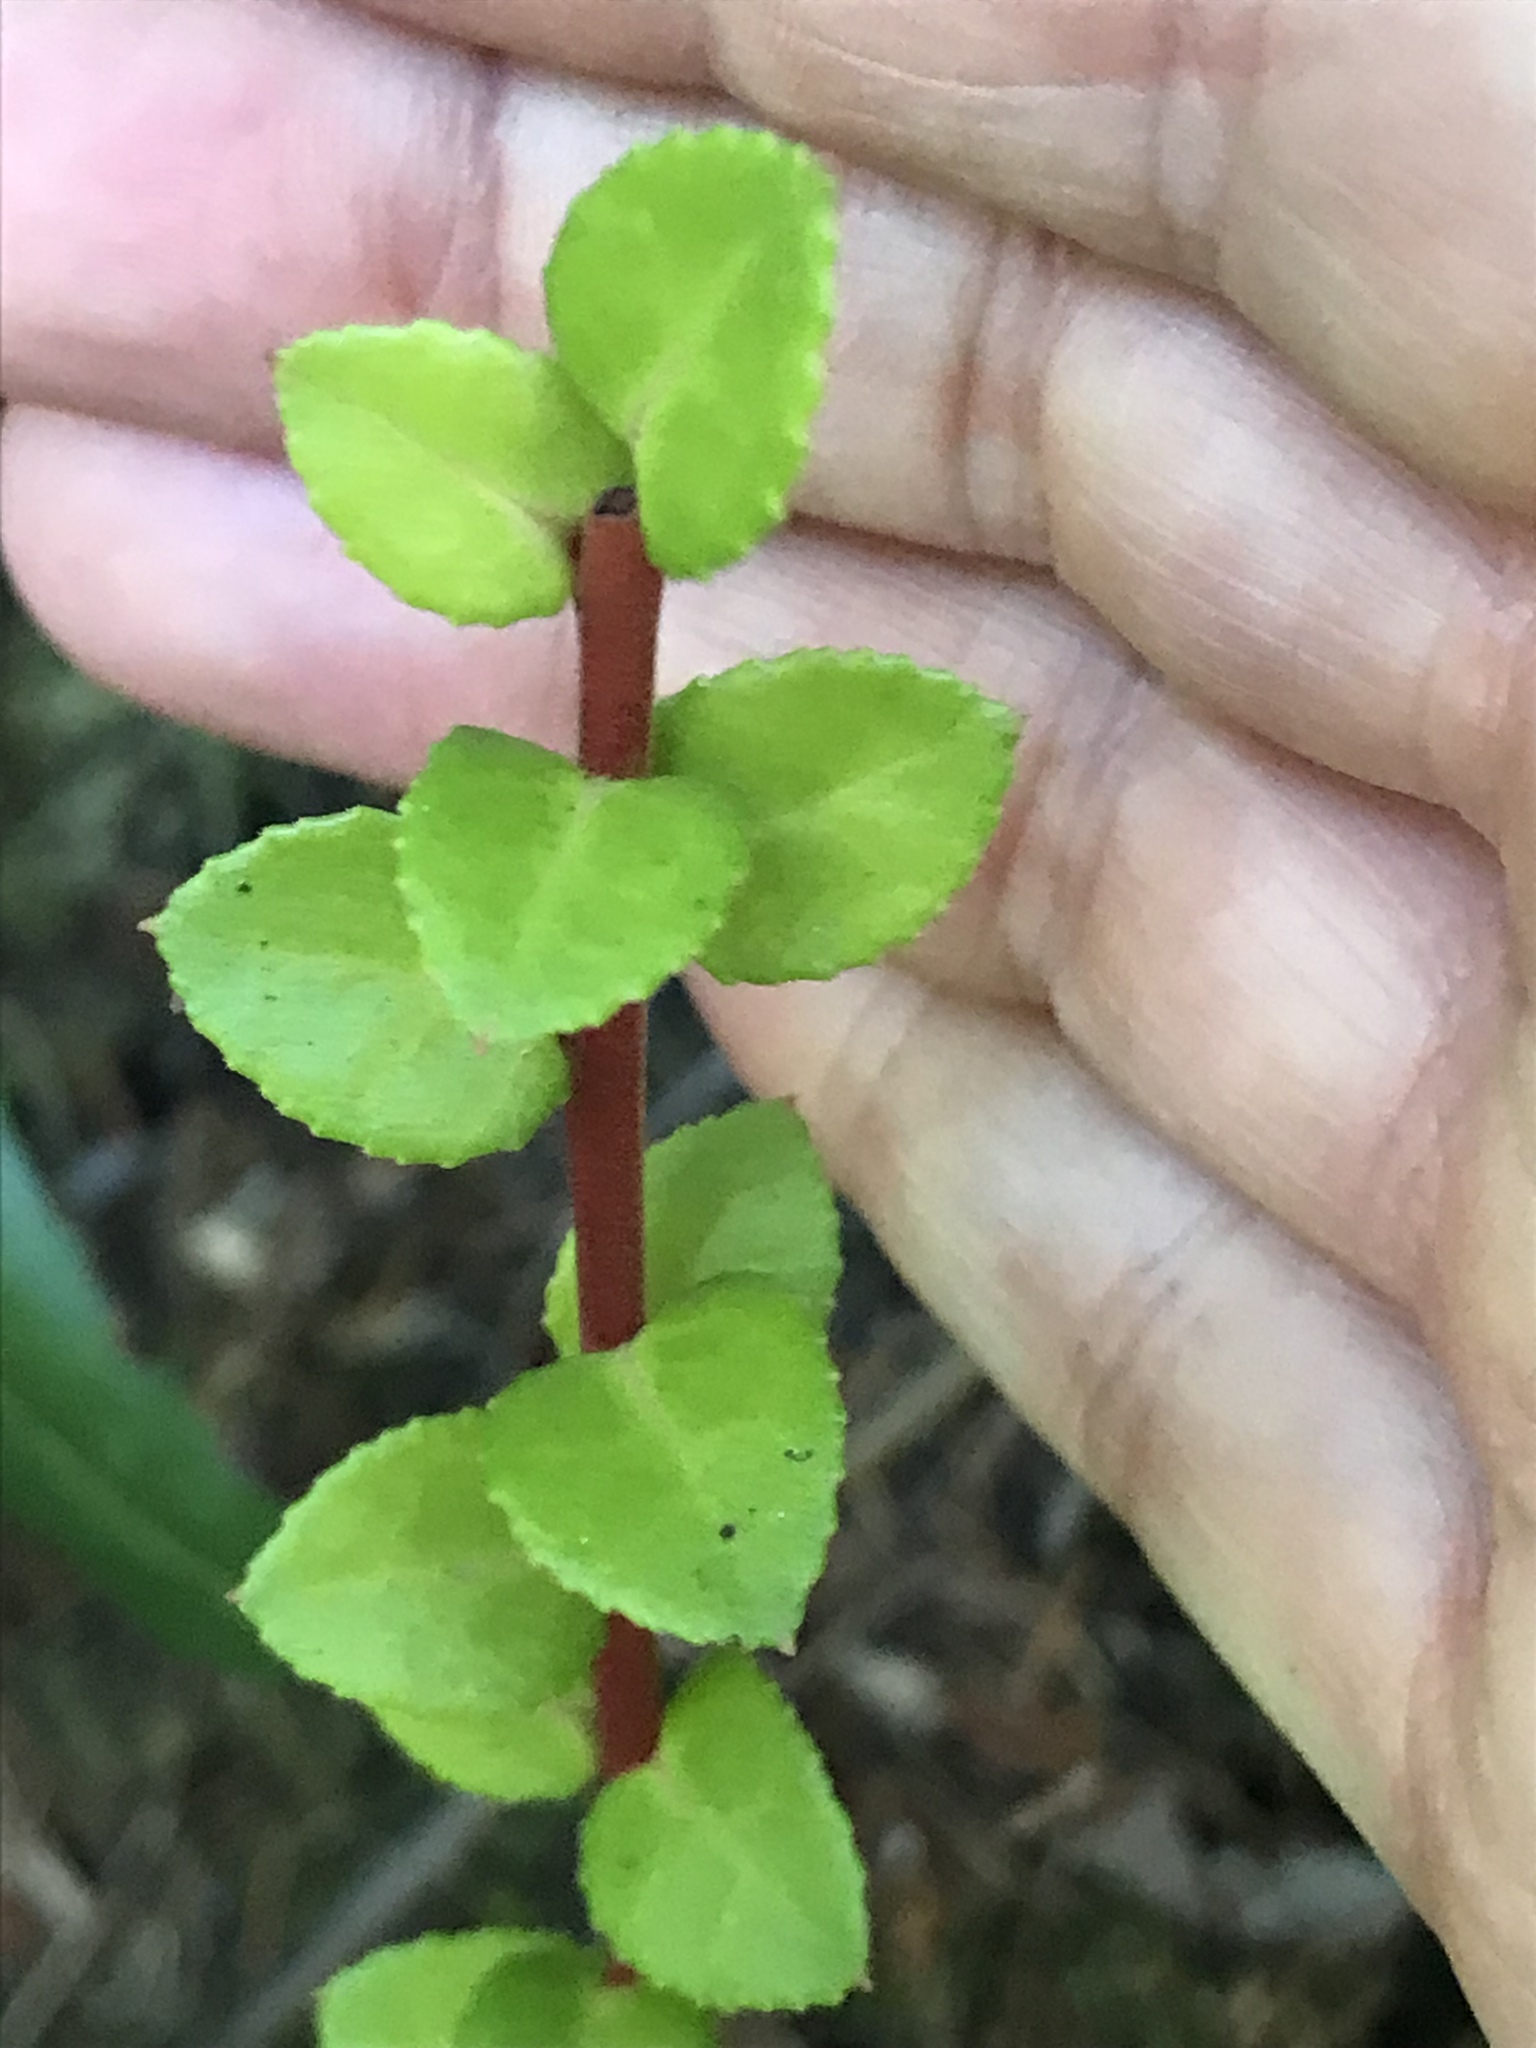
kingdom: Plantae
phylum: Tracheophyta
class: Magnoliopsida
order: Ericales
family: Ericaceae
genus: Vaccinium
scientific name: Vaccinium ovatum
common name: California-huckleberry
